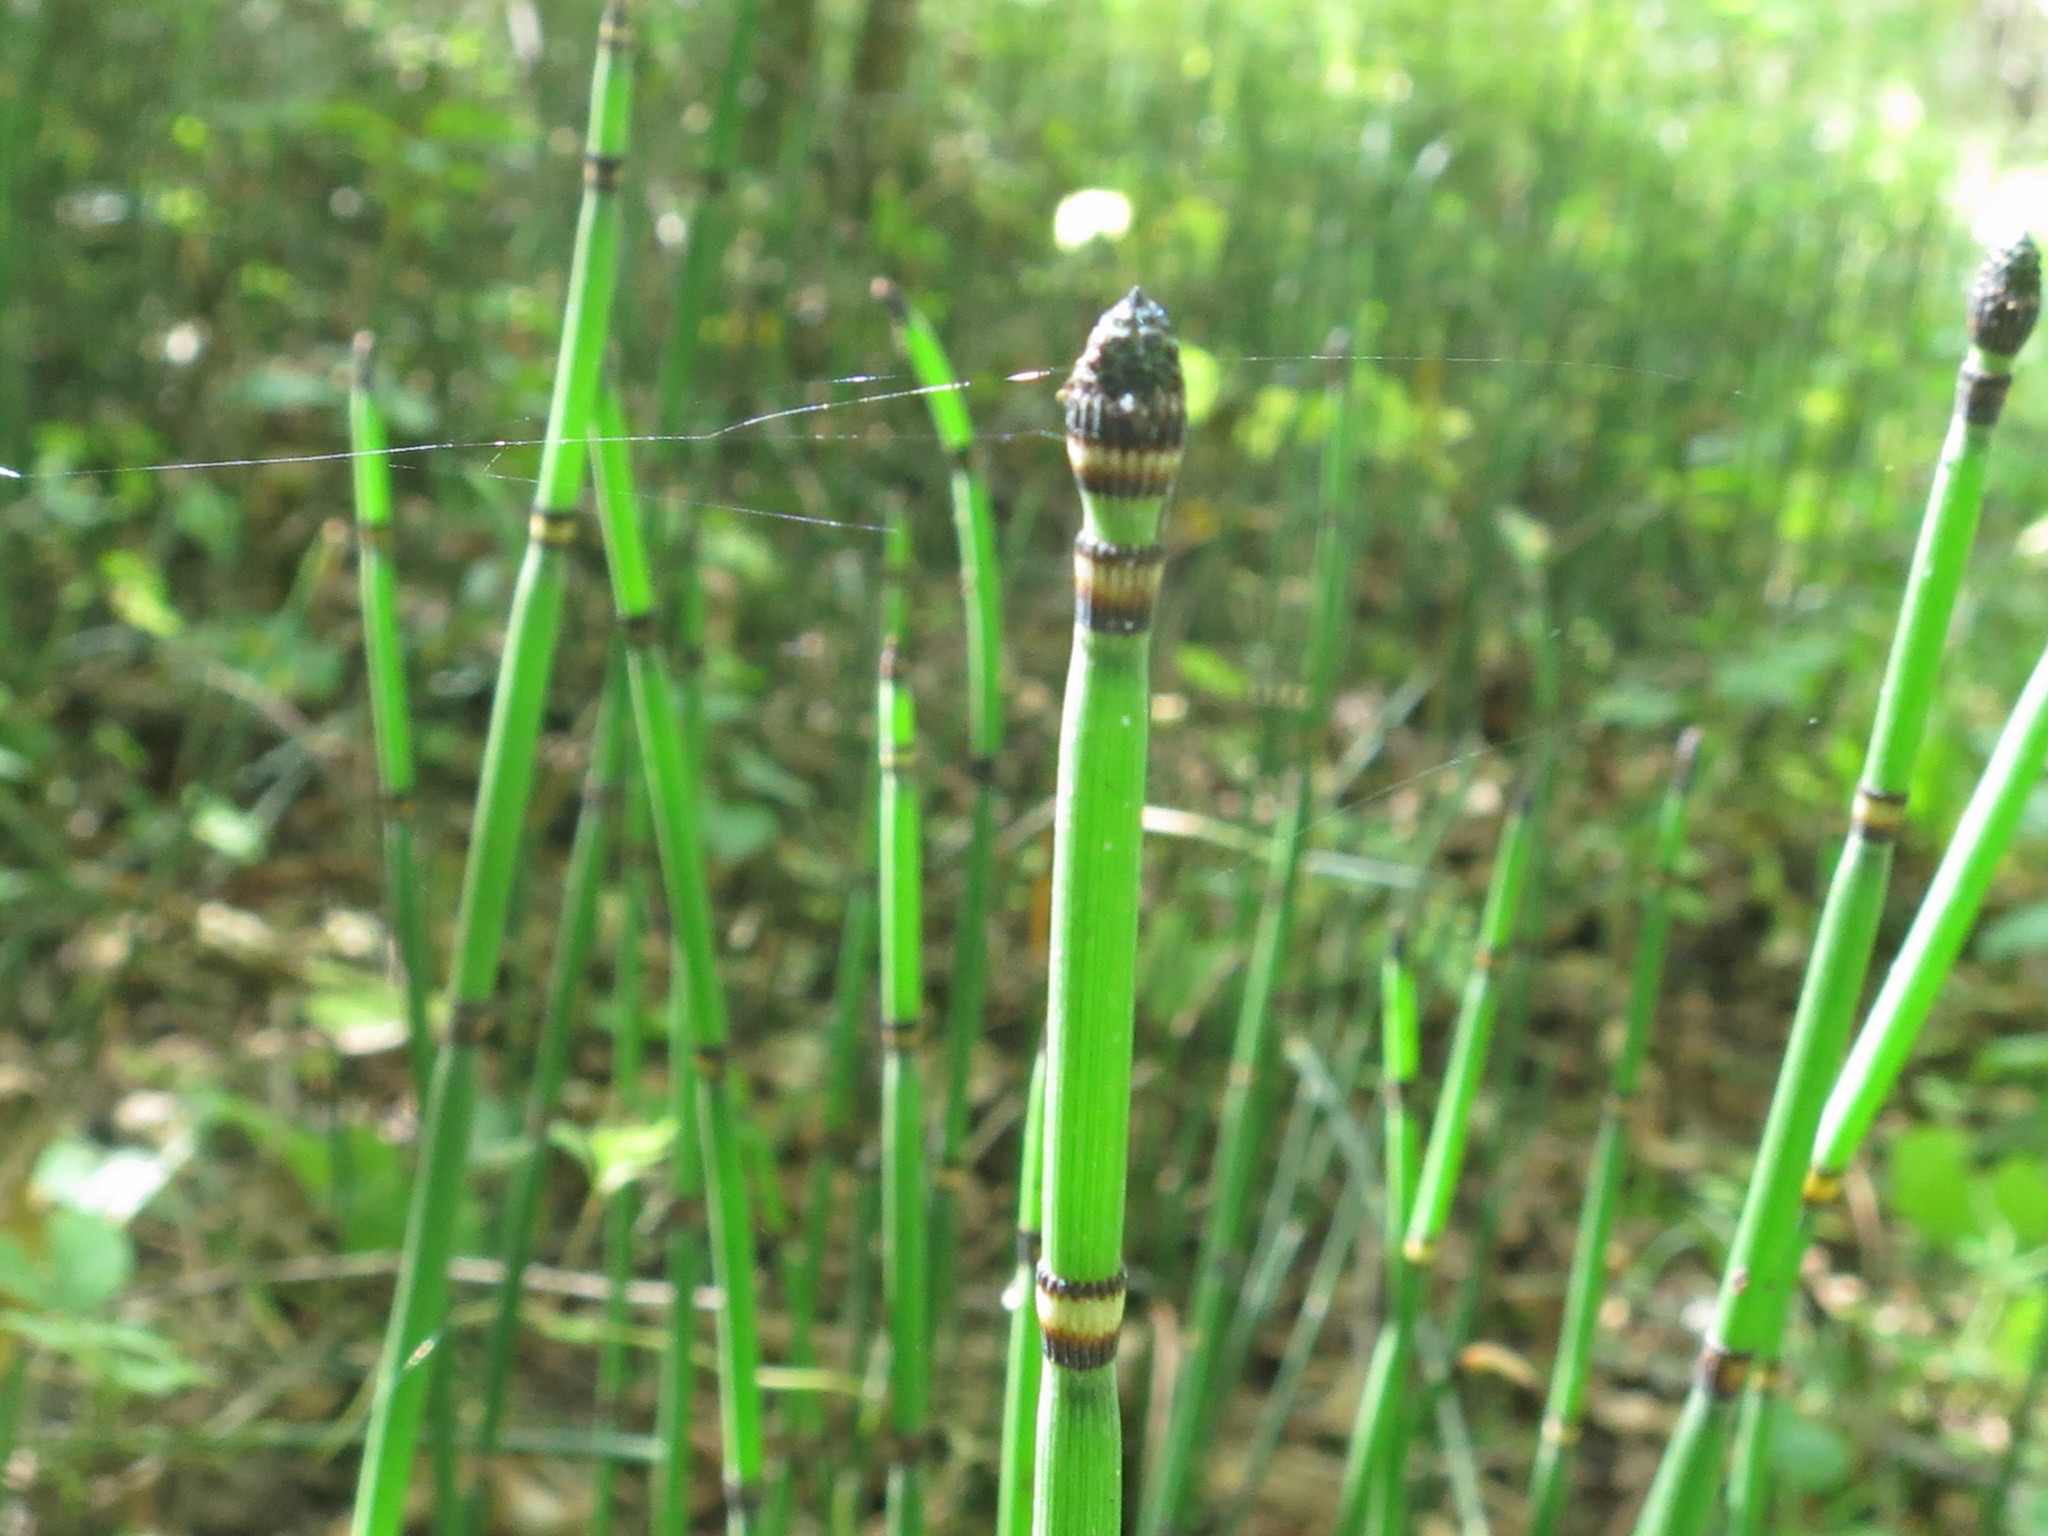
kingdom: Plantae
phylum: Tracheophyta
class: Polypodiopsida
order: Equisetales
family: Equisetaceae
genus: Equisetum
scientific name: Equisetum hyemale
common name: Rough horsetail
